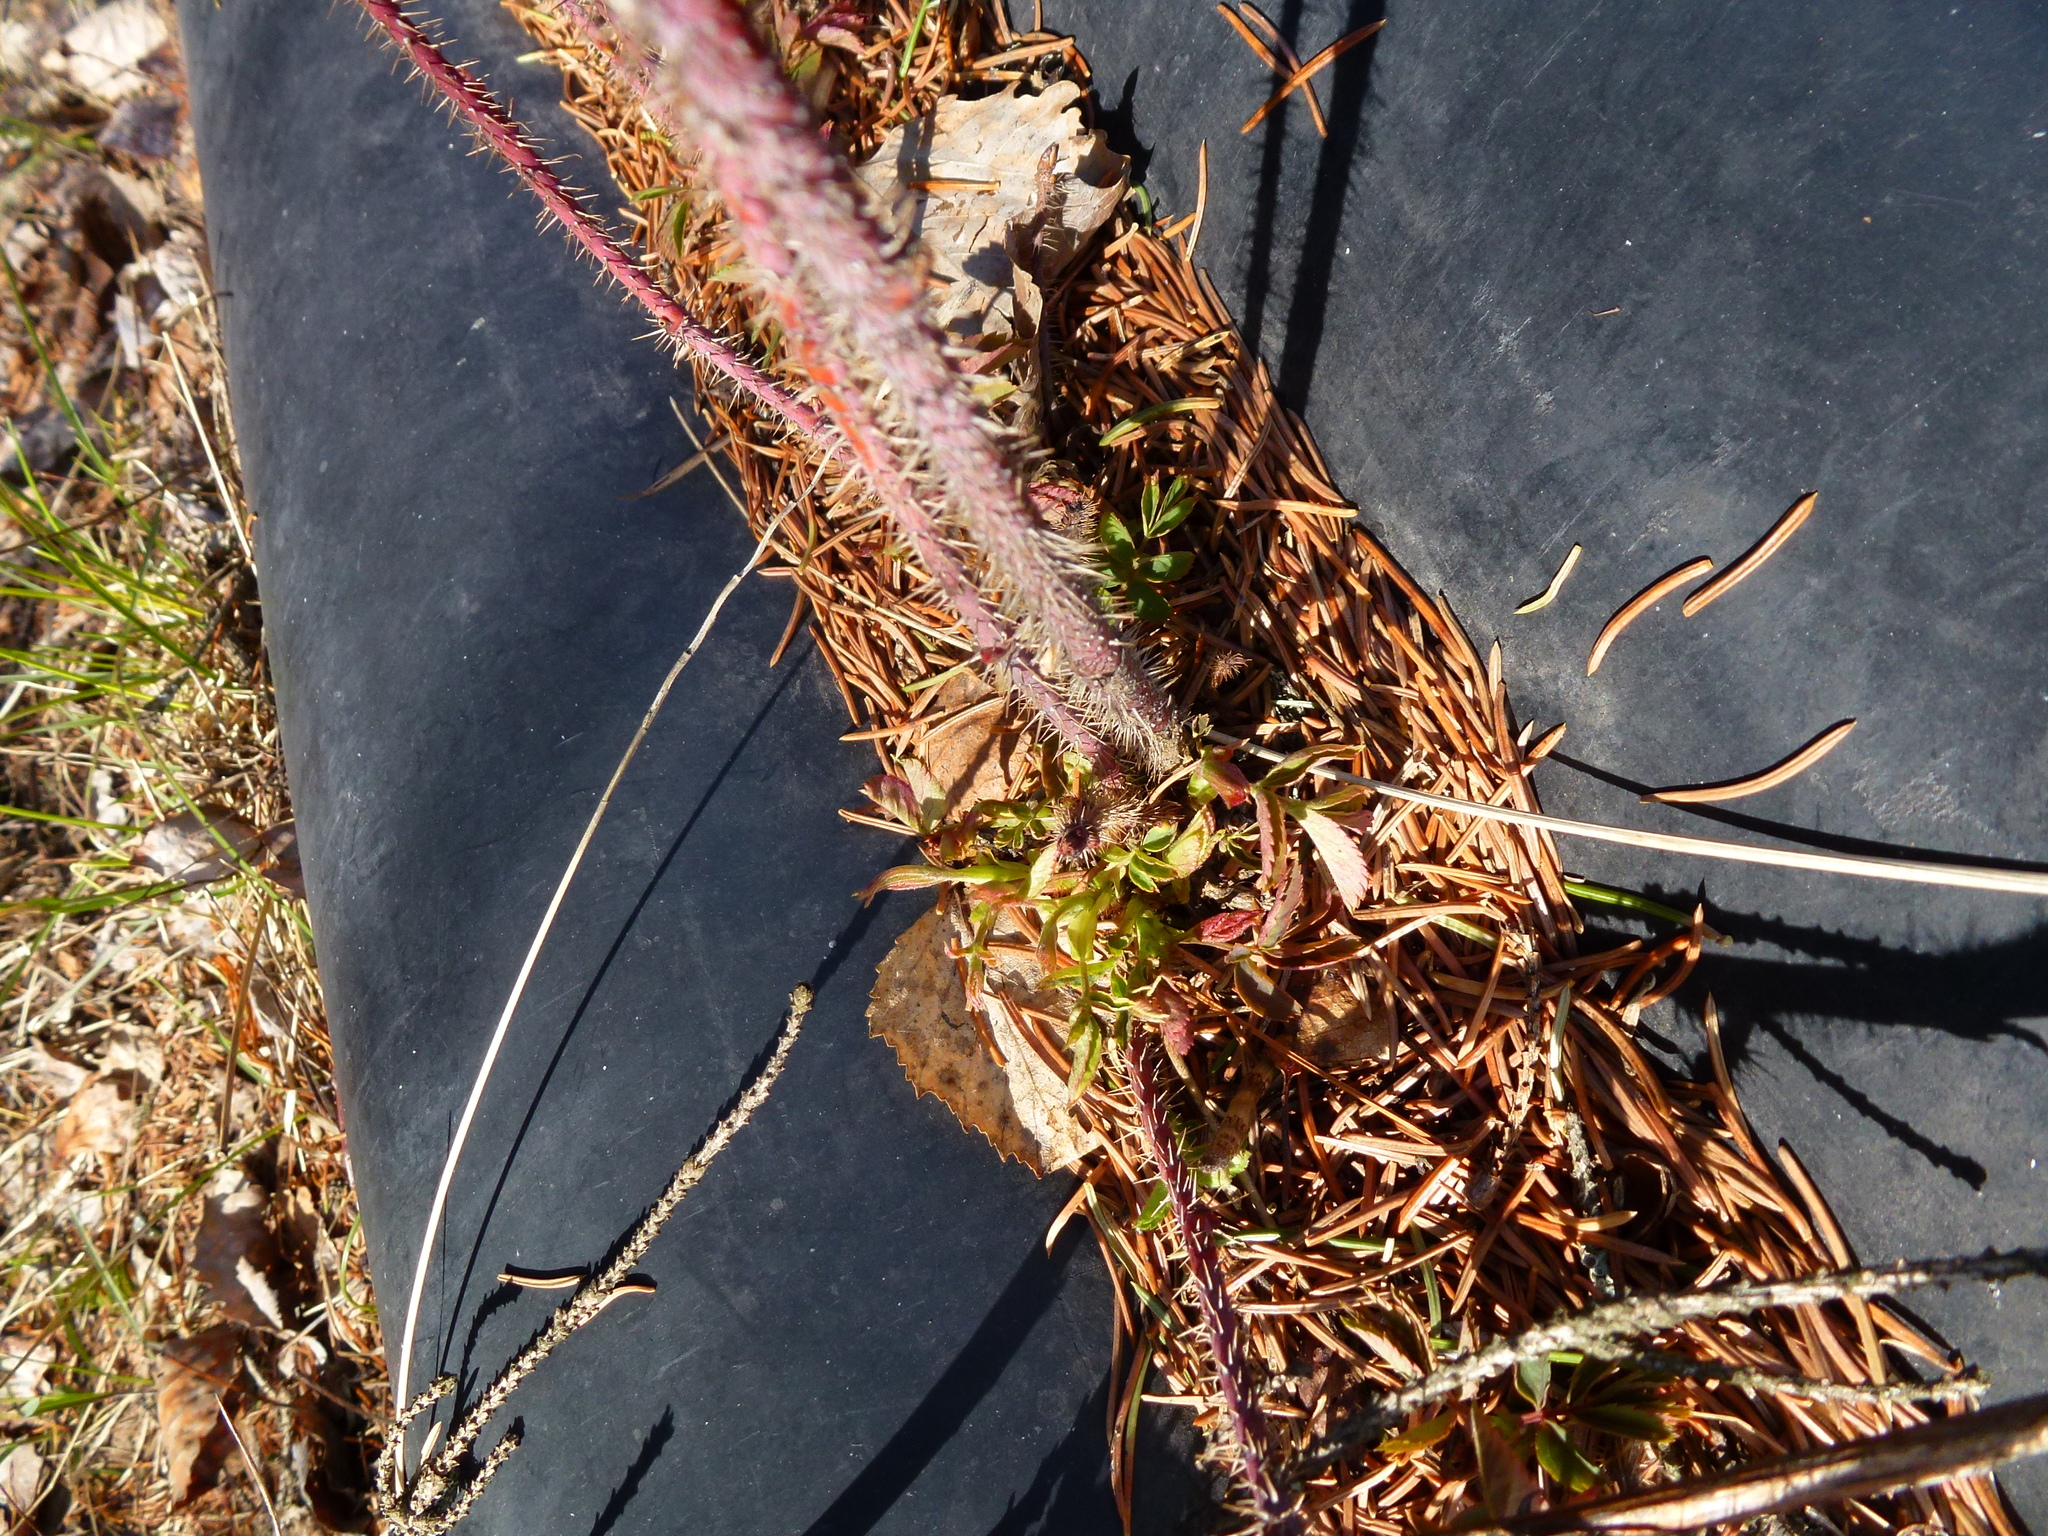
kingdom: Plantae
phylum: Tracheophyta
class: Magnoliopsida
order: Rosales
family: Rosaceae
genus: Rosa
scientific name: Rosa acicularis
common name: Prickly rose
